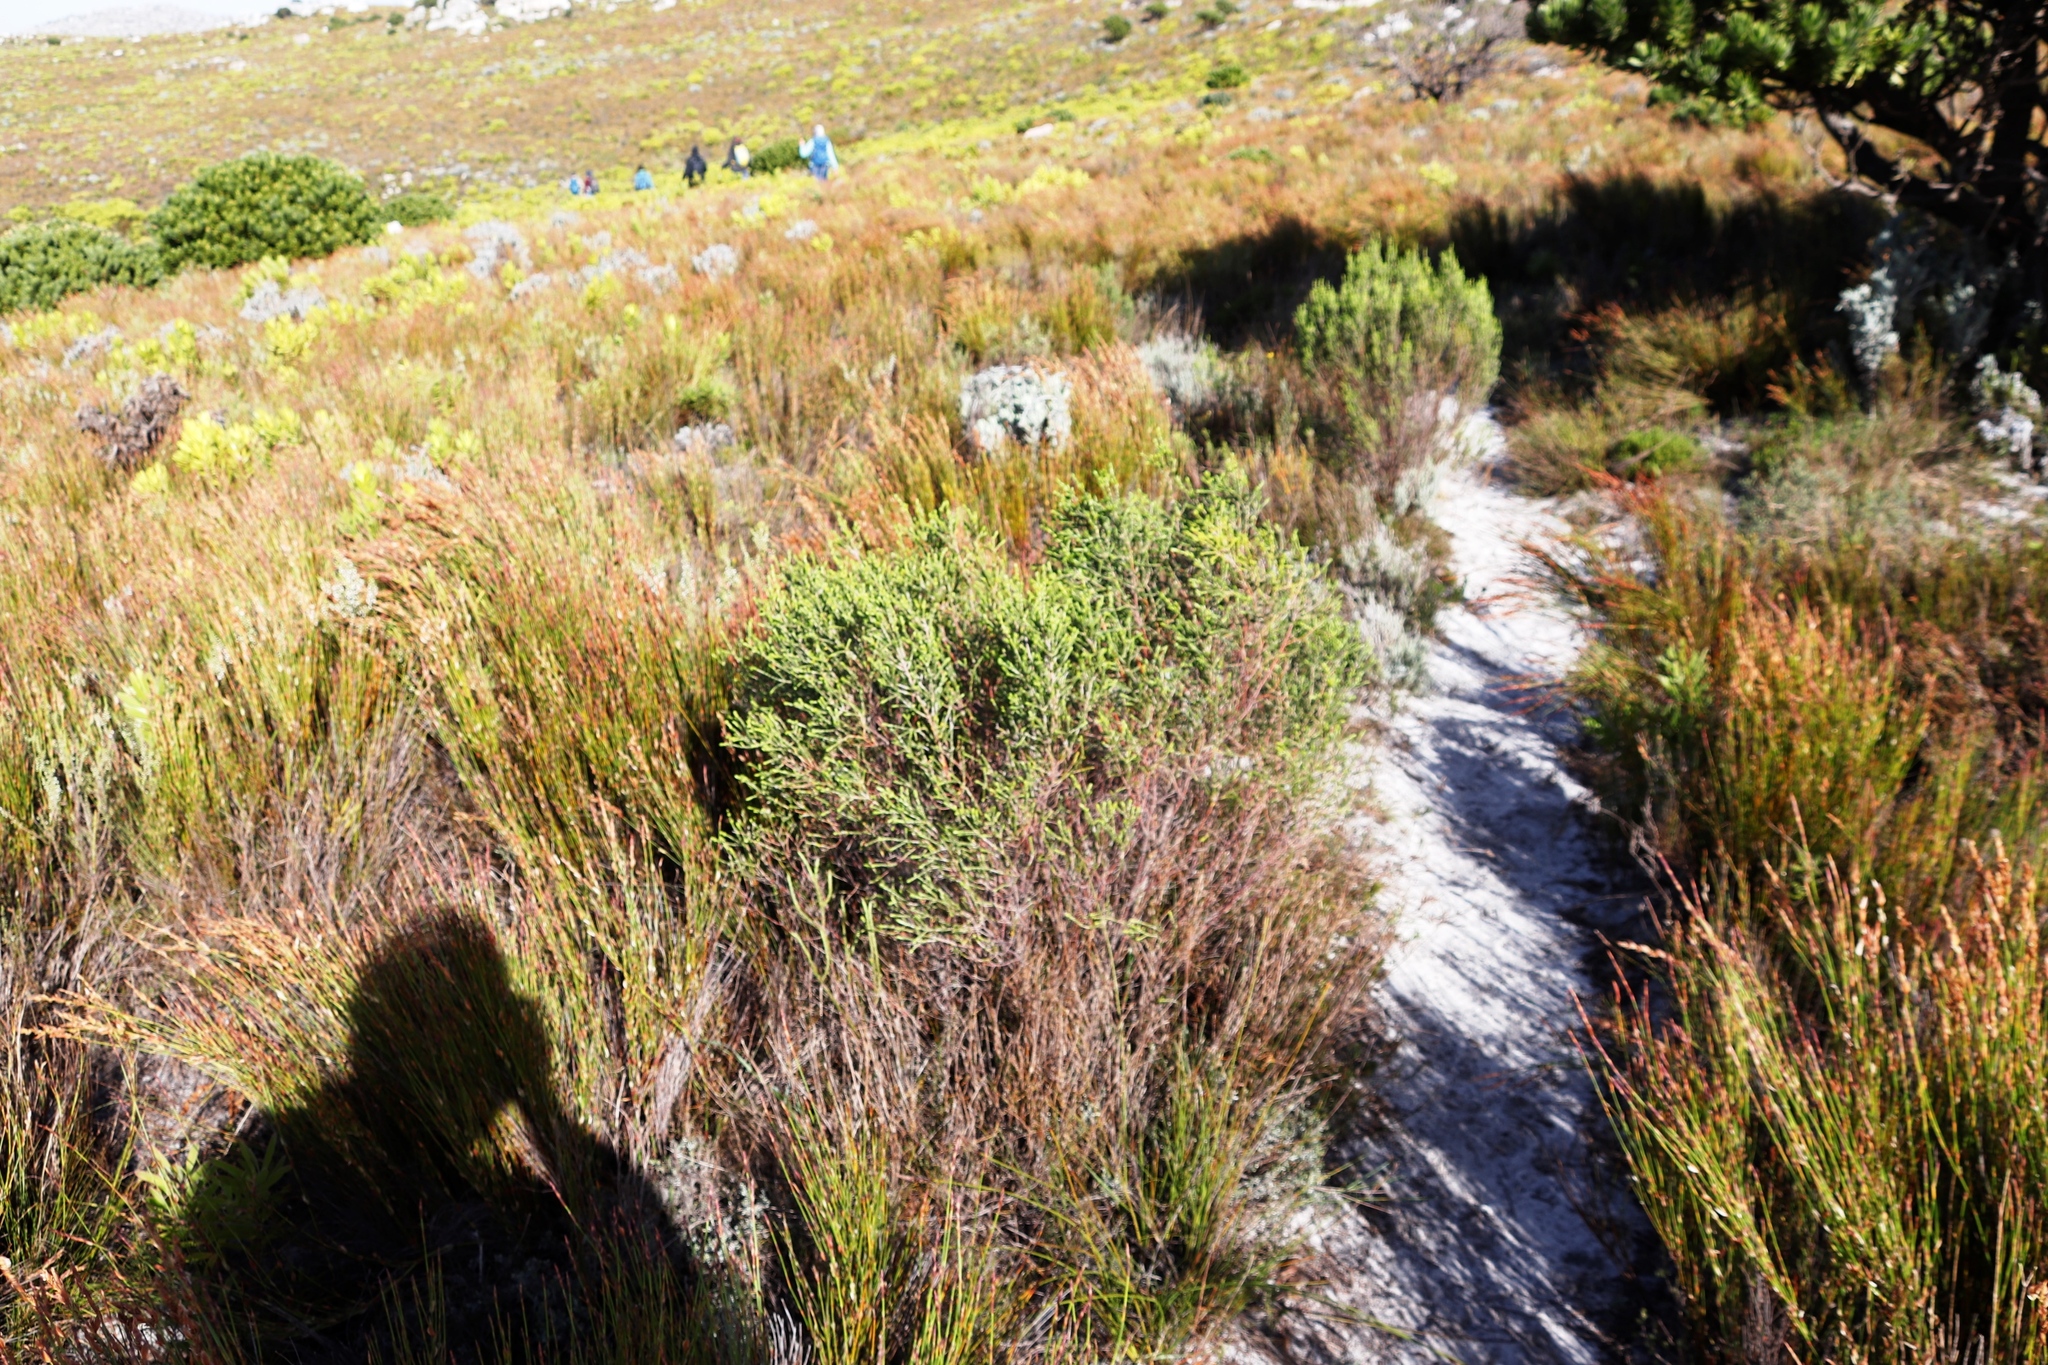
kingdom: Plantae
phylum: Tracheophyta
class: Magnoliopsida
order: Malvales
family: Thymelaeaceae
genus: Passerina
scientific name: Passerina corymbosa
